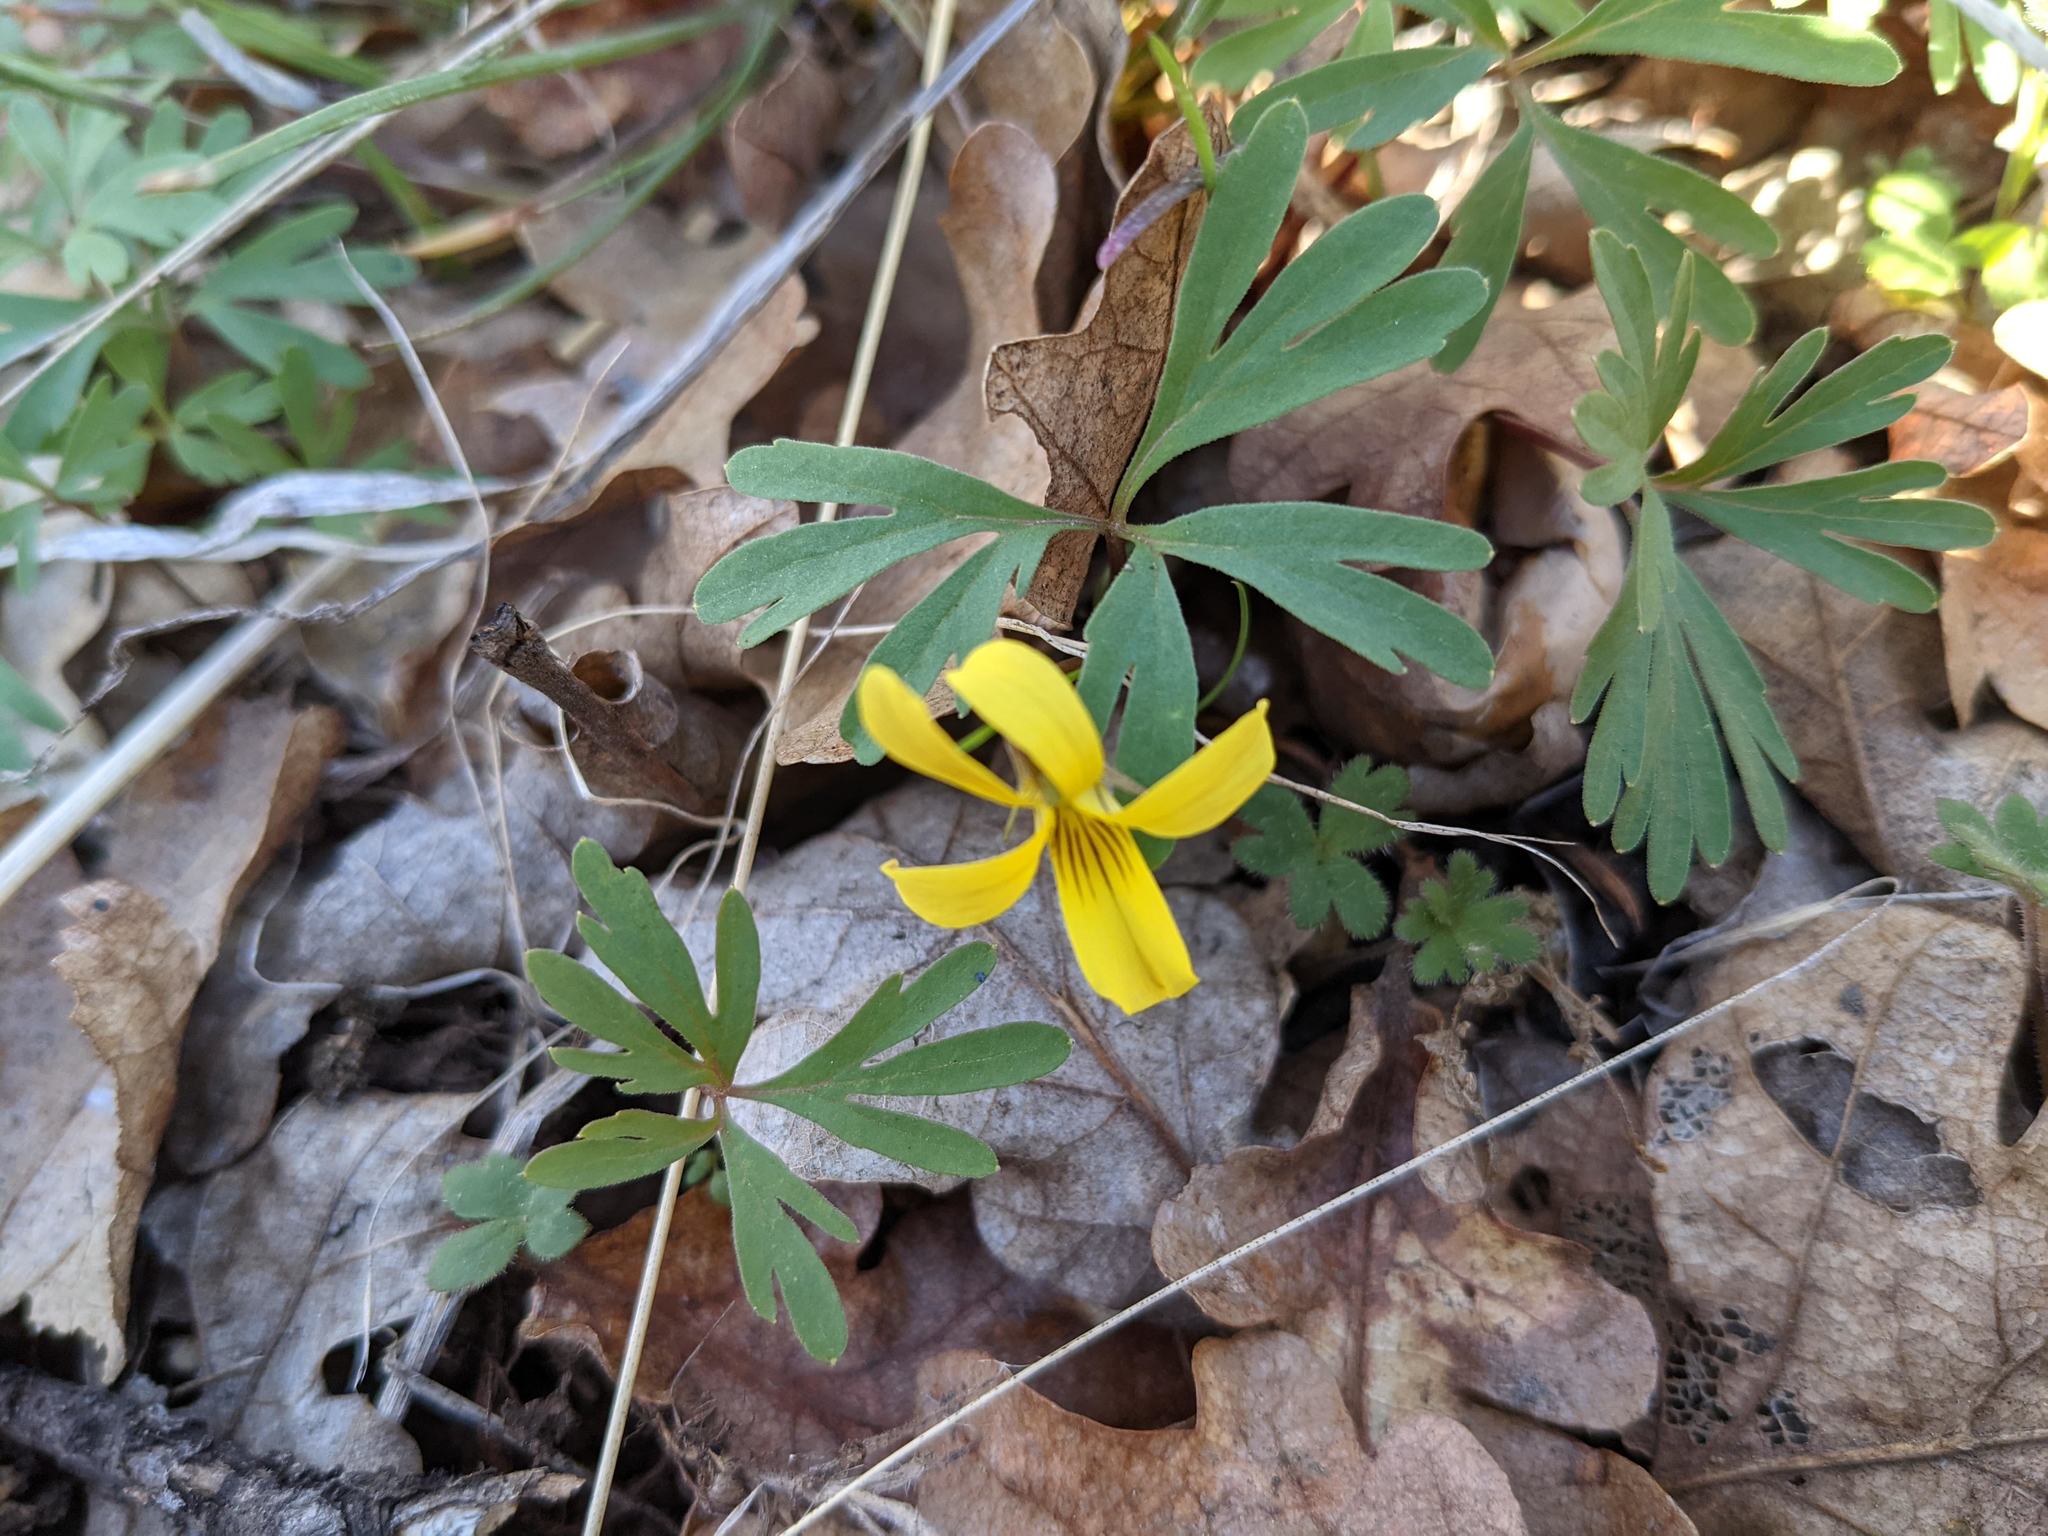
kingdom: Plantae
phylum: Tracheophyta
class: Magnoliopsida
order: Malpighiales
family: Violaceae
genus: Viola
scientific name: Viola sheltonii
